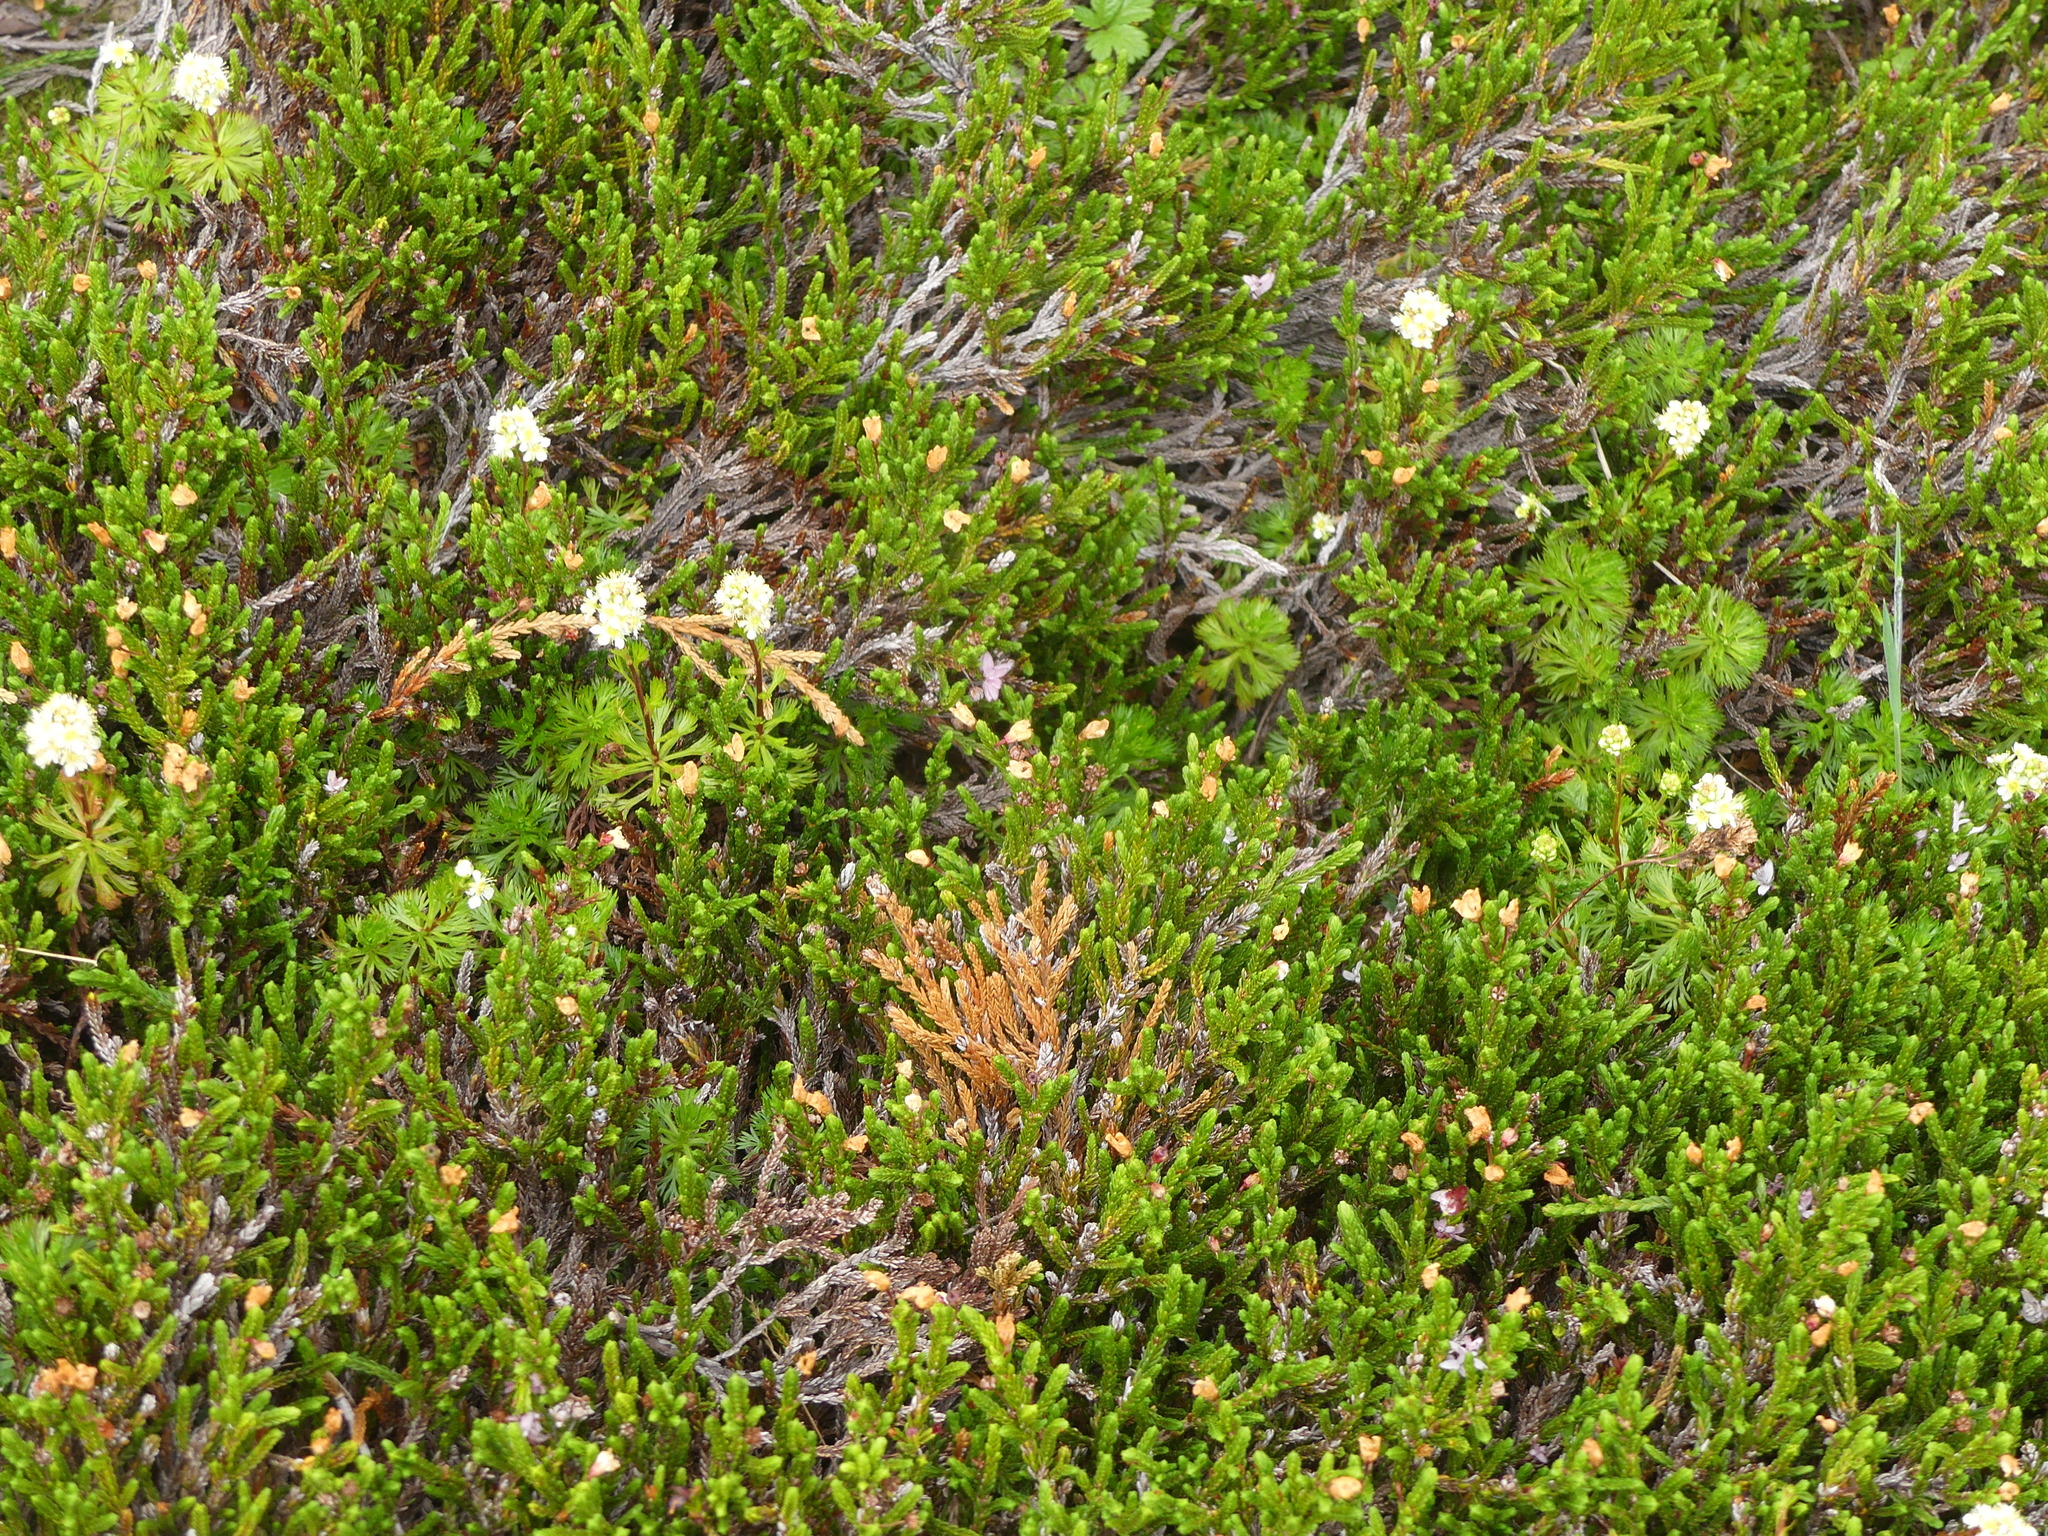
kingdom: Plantae
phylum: Tracheophyta
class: Magnoliopsida
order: Rosales
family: Rosaceae
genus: Luetkea
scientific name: Luetkea pectinata
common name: Partridgefoot
